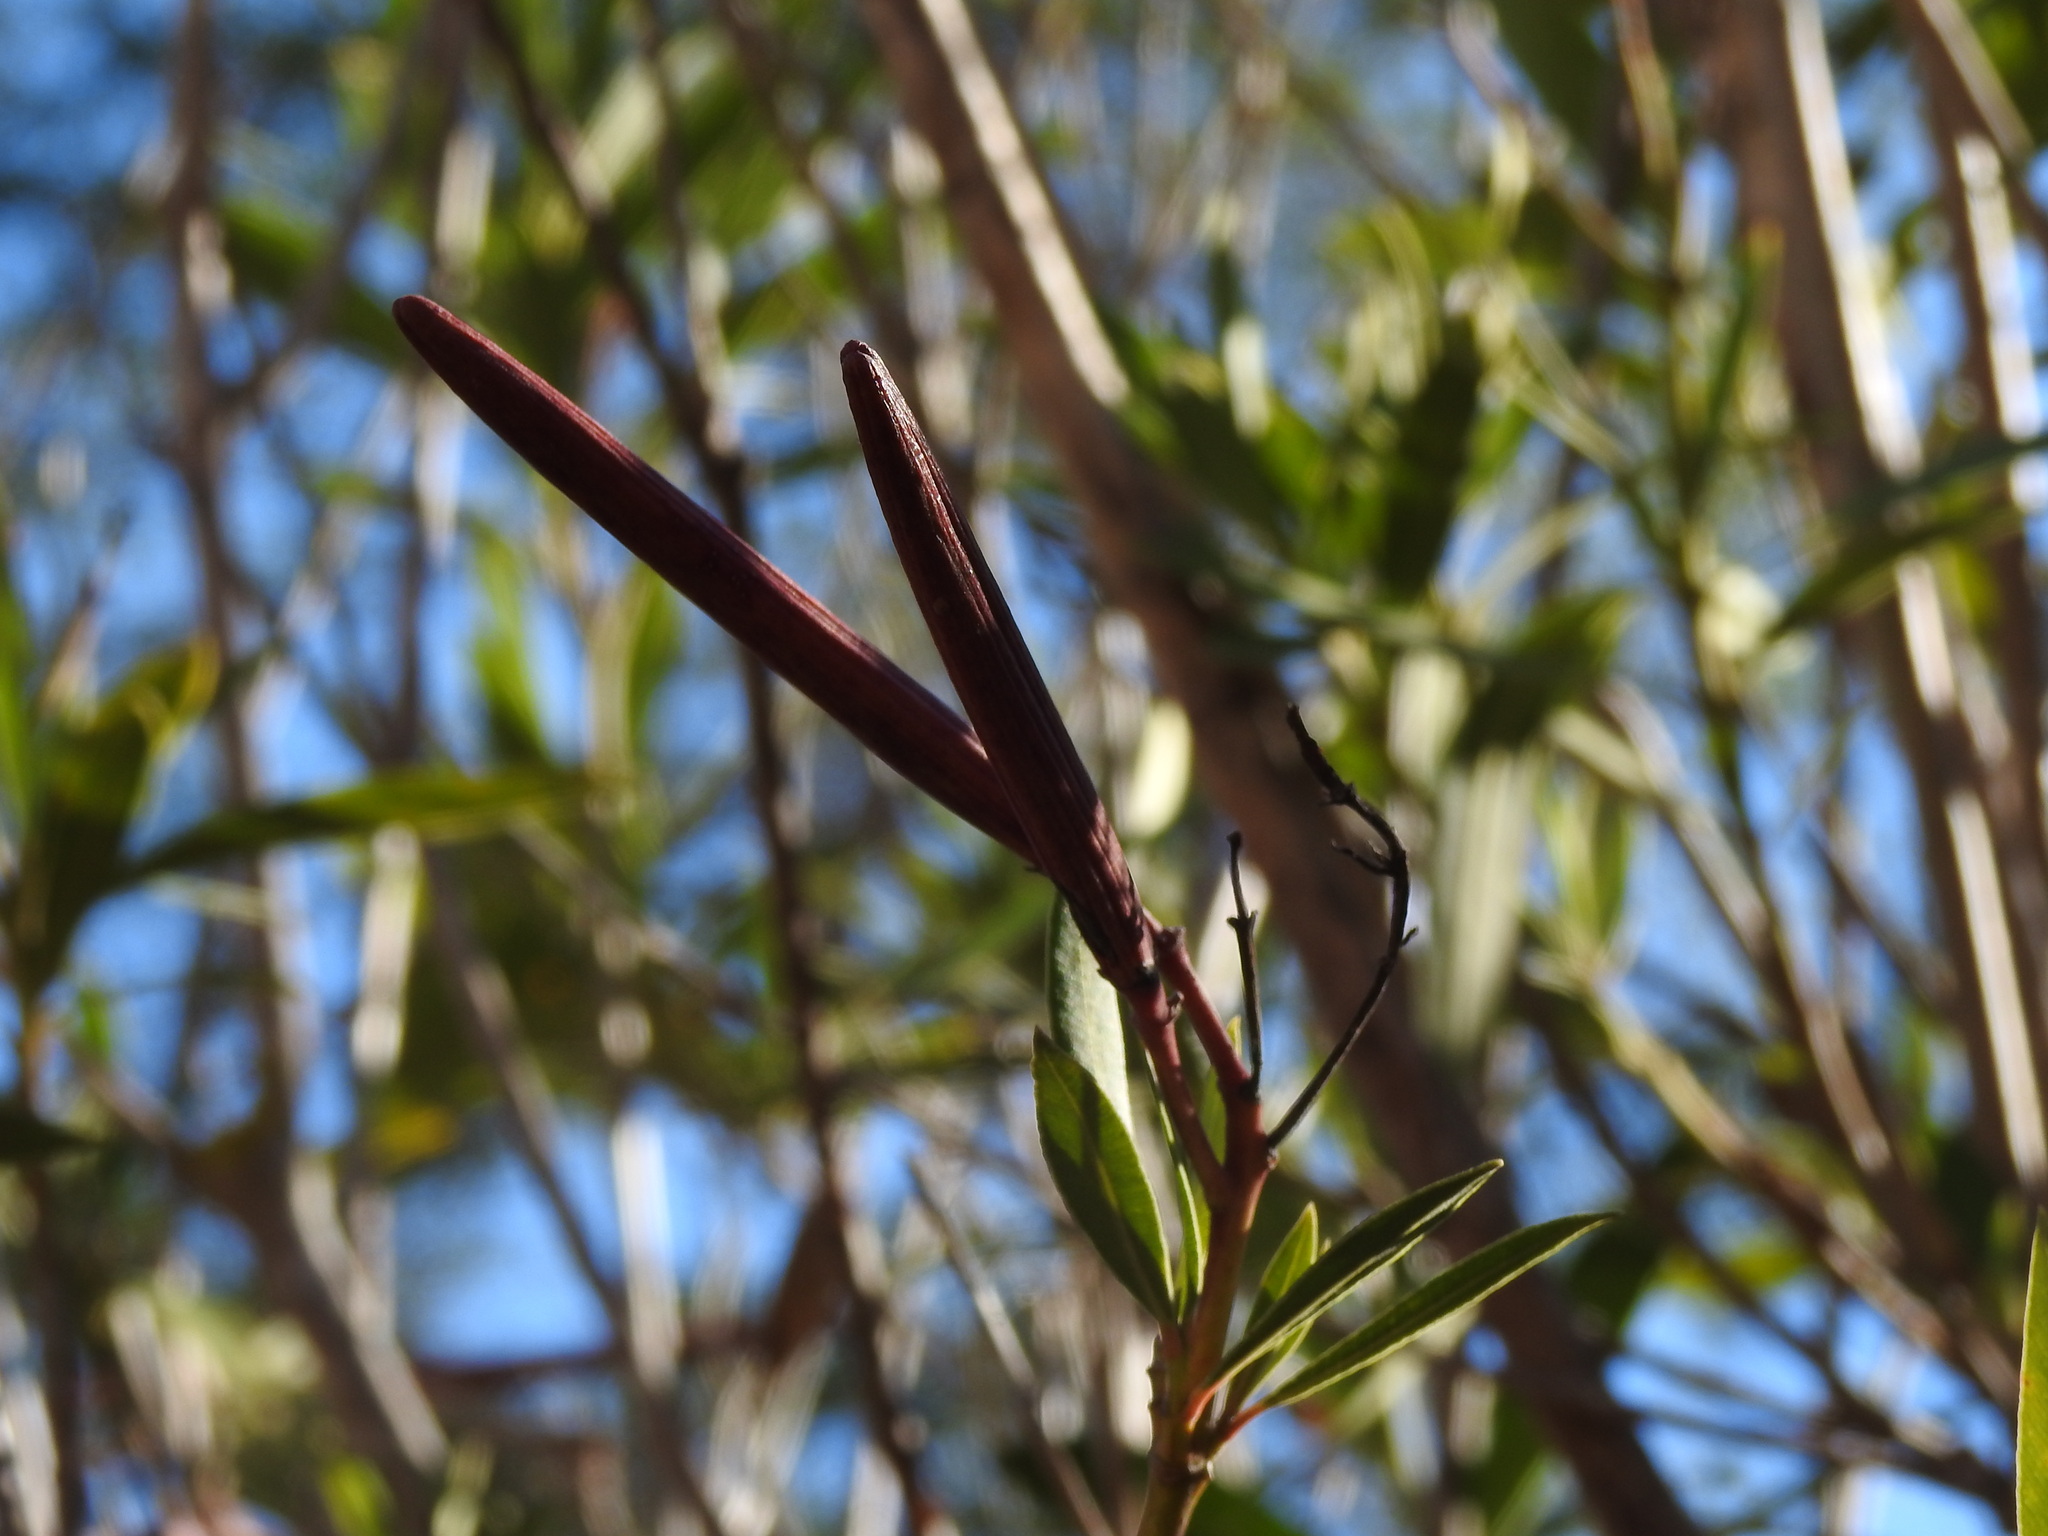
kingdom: Plantae
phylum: Tracheophyta
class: Magnoliopsida
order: Gentianales
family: Apocynaceae
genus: Nerium
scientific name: Nerium oleander
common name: Oleander
